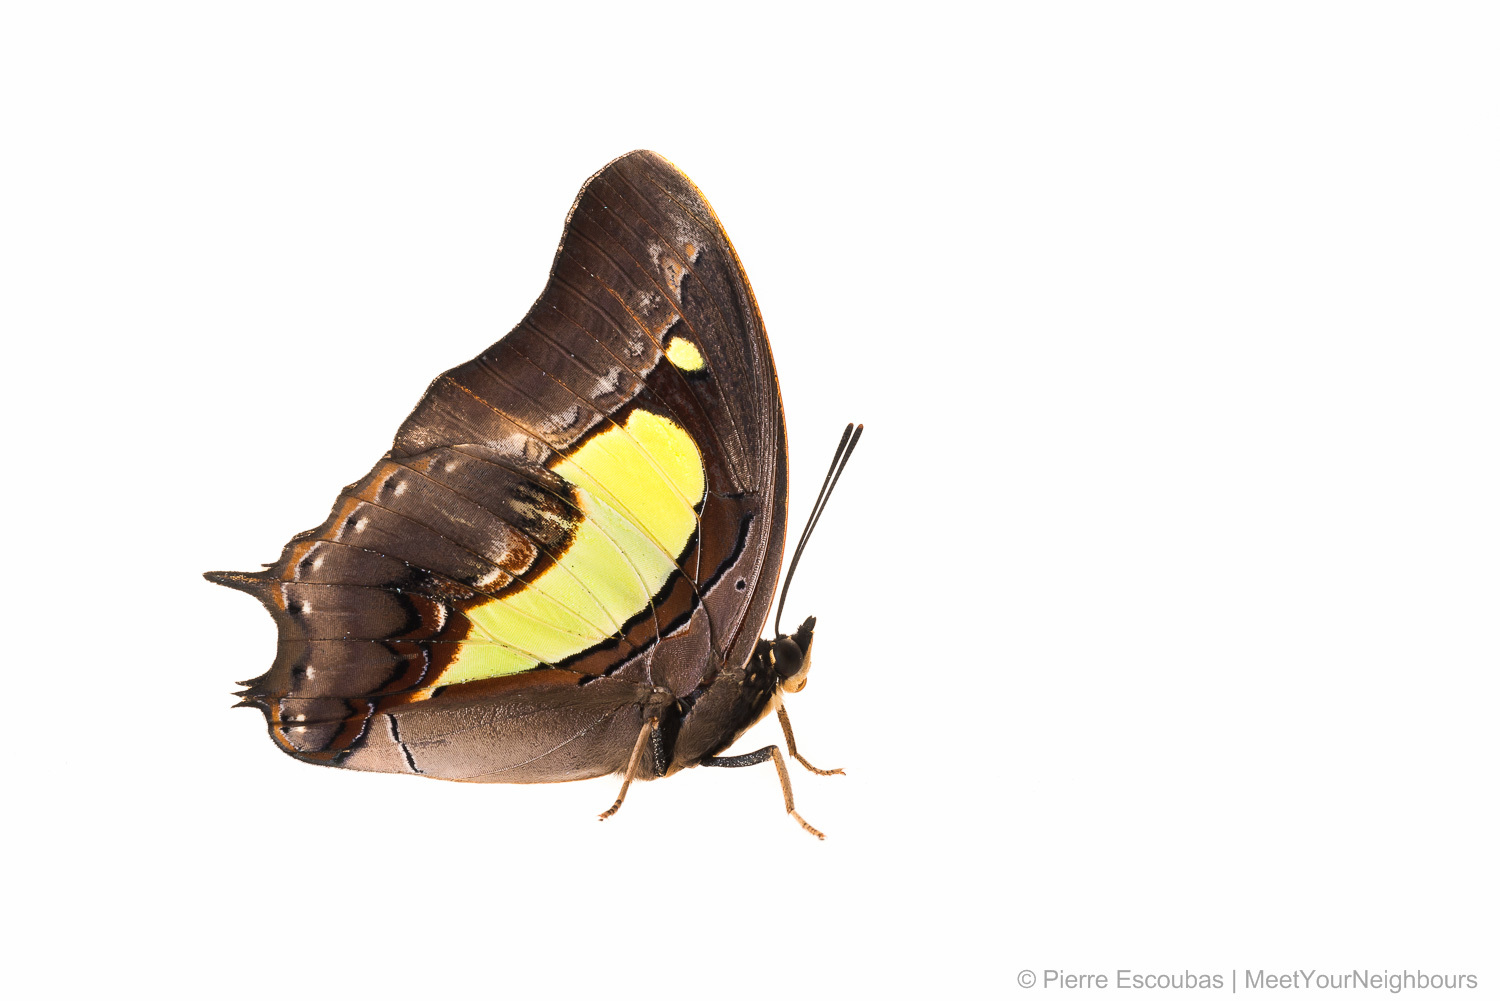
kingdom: Animalia
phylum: Arthropoda
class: Insecta
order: Lepidoptera
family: Nymphalidae
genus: Polyura
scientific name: Polyura athamas
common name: Common nawab
